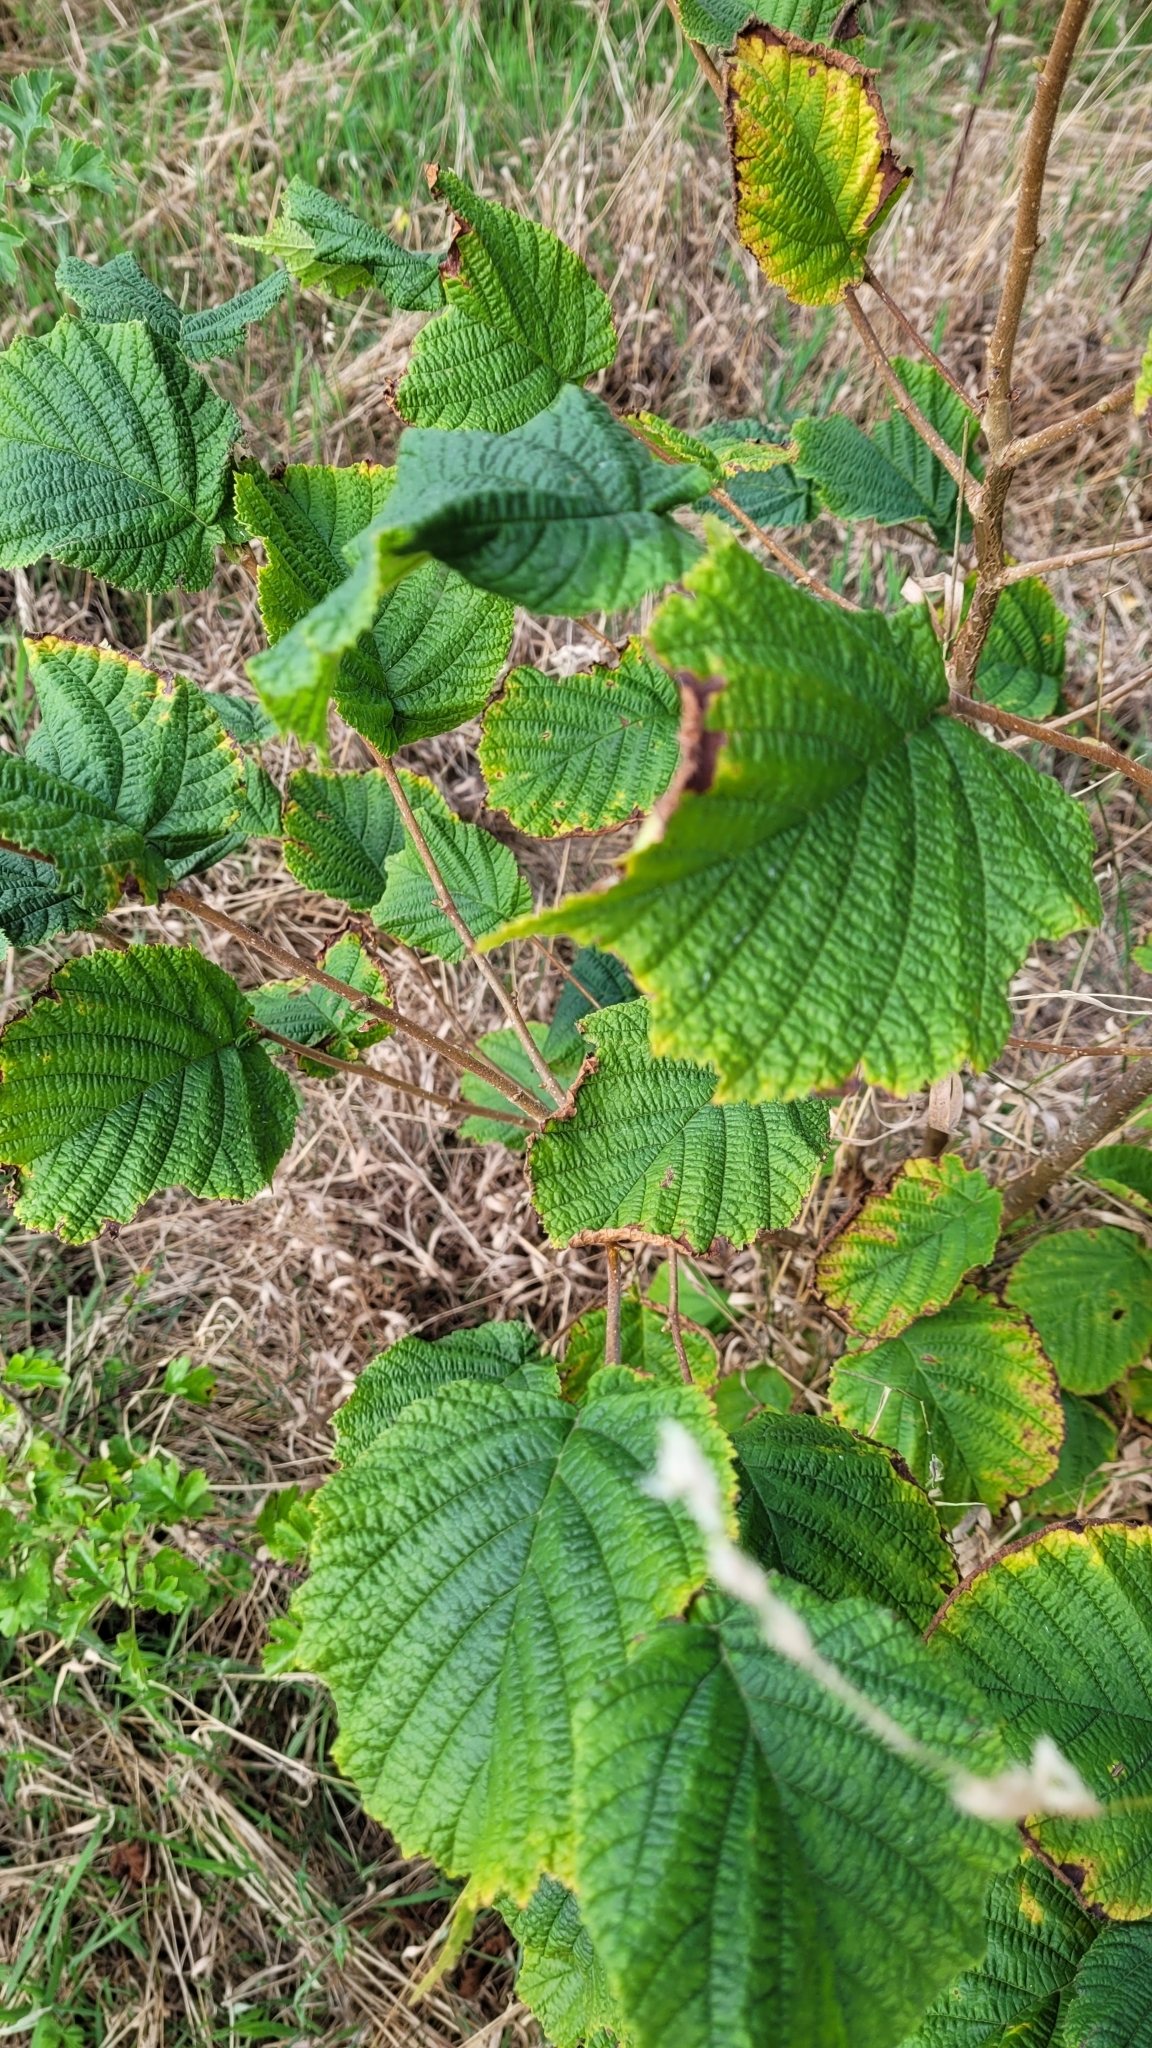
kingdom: Plantae
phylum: Tracheophyta
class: Magnoliopsida
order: Fagales
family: Betulaceae
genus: Corylus
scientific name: Corylus avellana
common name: European hazel
